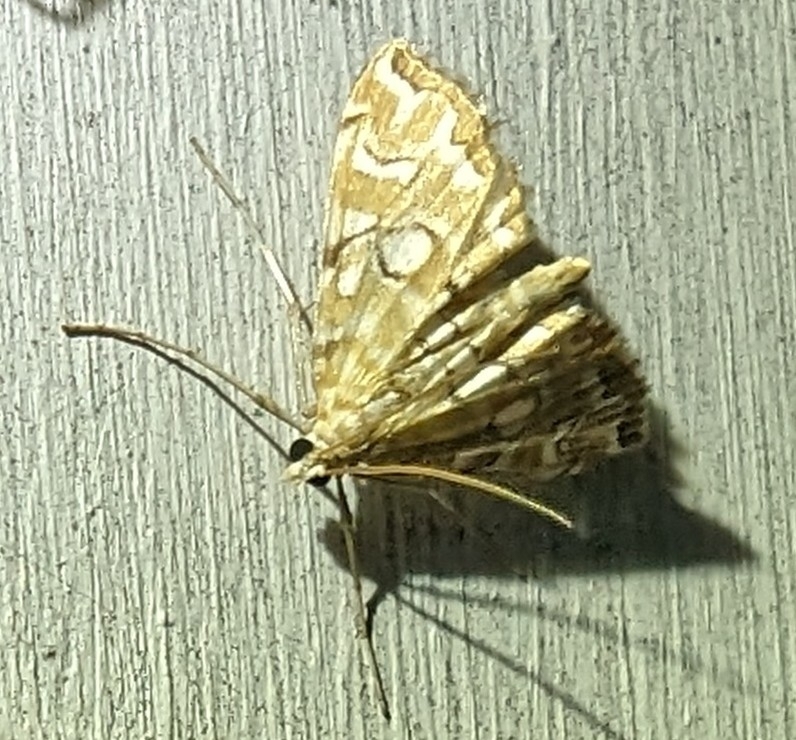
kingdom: Animalia
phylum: Arthropoda
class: Insecta
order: Lepidoptera
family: Crambidae
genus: Elophila
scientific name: Elophila icciusalis
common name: Pondside pyralid moth
